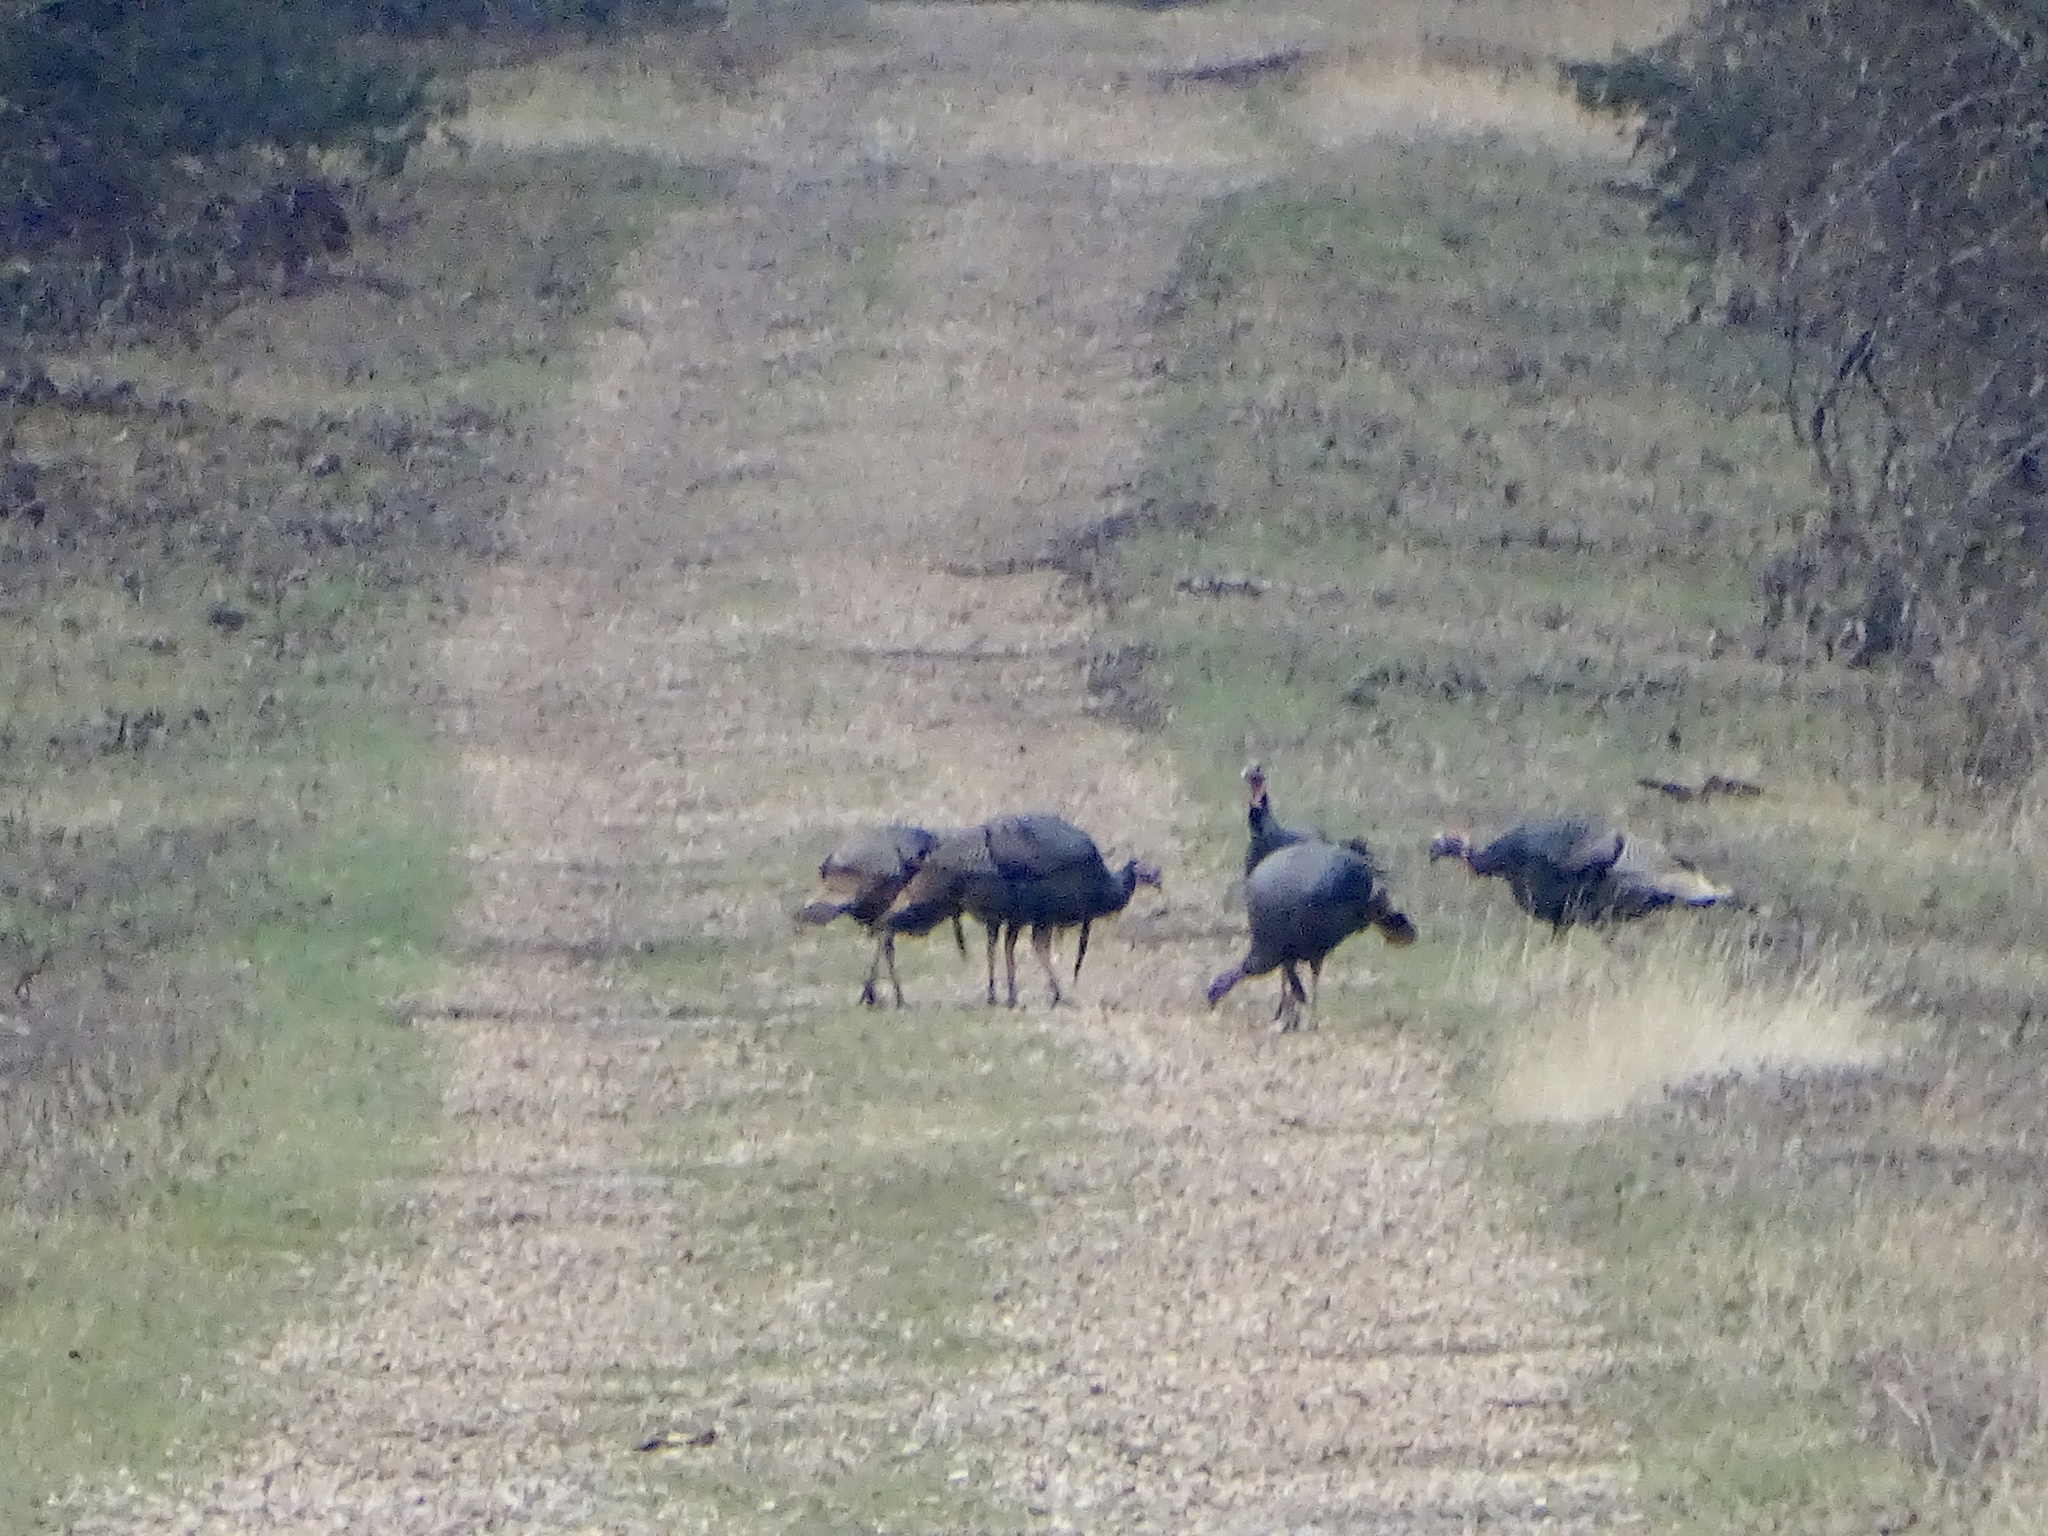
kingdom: Animalia
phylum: Chordata
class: Aves
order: Galliformes
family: Phasianidae
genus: Meleagris
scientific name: Meleagris gallopavo
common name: Wild turkey
